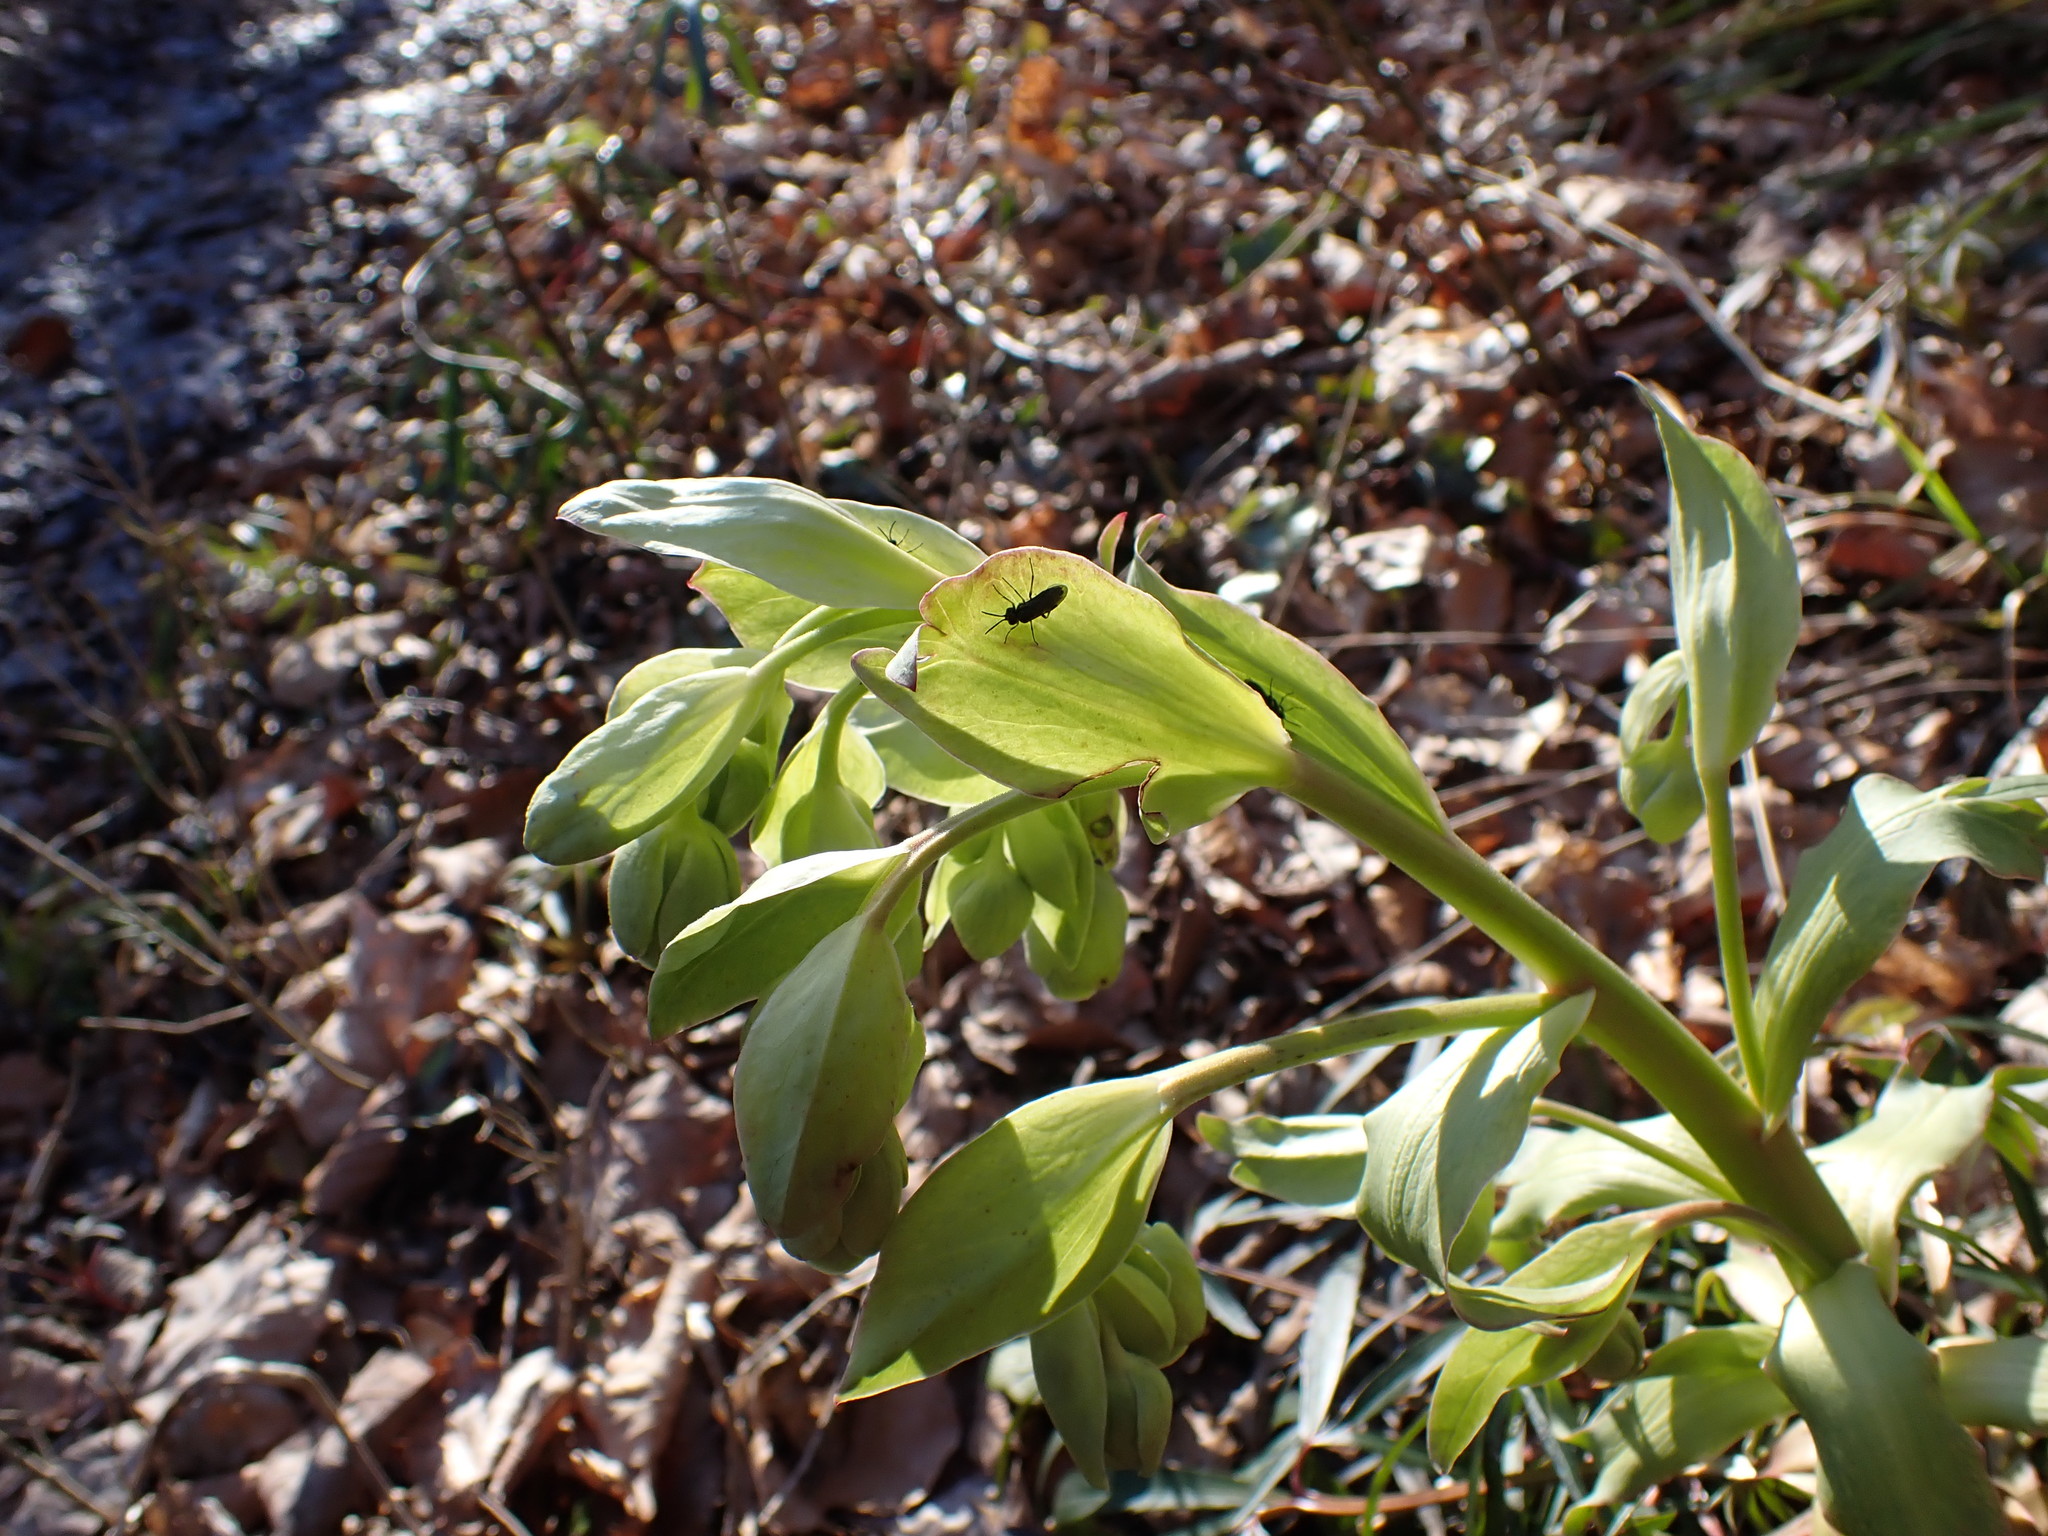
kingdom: Plantae
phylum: Tracheophyta
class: Magnoliopsida
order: Ranunculales
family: Ranunculaceae
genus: Helleborus
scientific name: Helleborus foetidus
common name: Stinking hellebore
